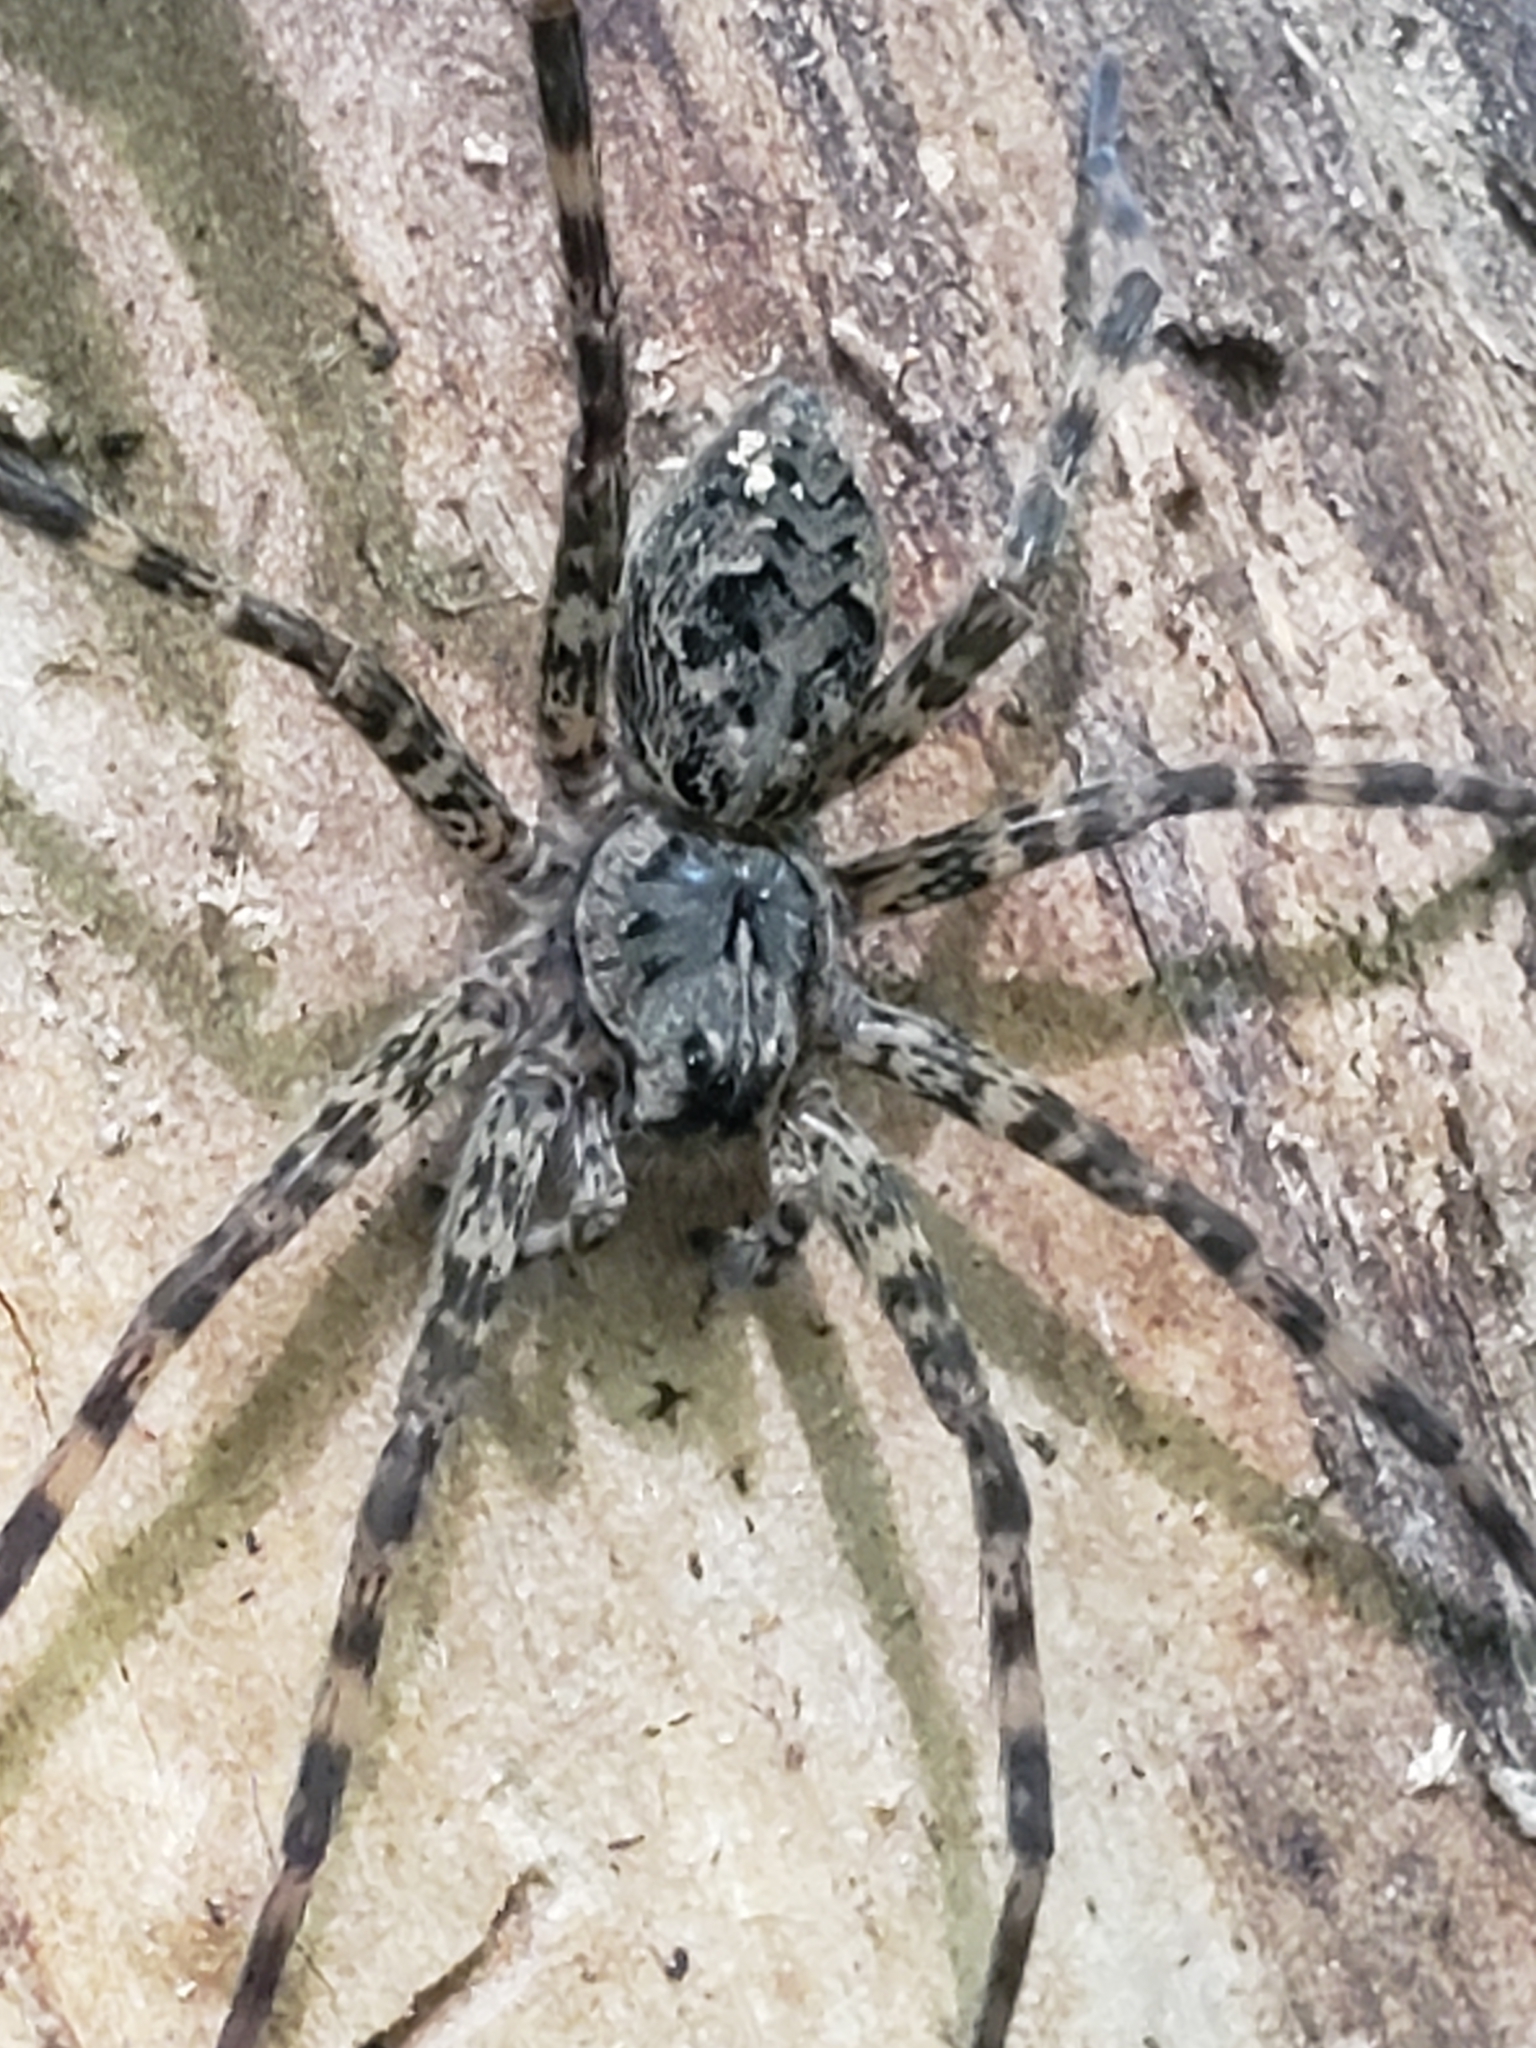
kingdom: Animalia
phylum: Arthropoda
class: Arachnida
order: Araneae
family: Pisauridae
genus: Dolomedes
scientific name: Dolomedes tenebrosus
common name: Dark fishing spider
